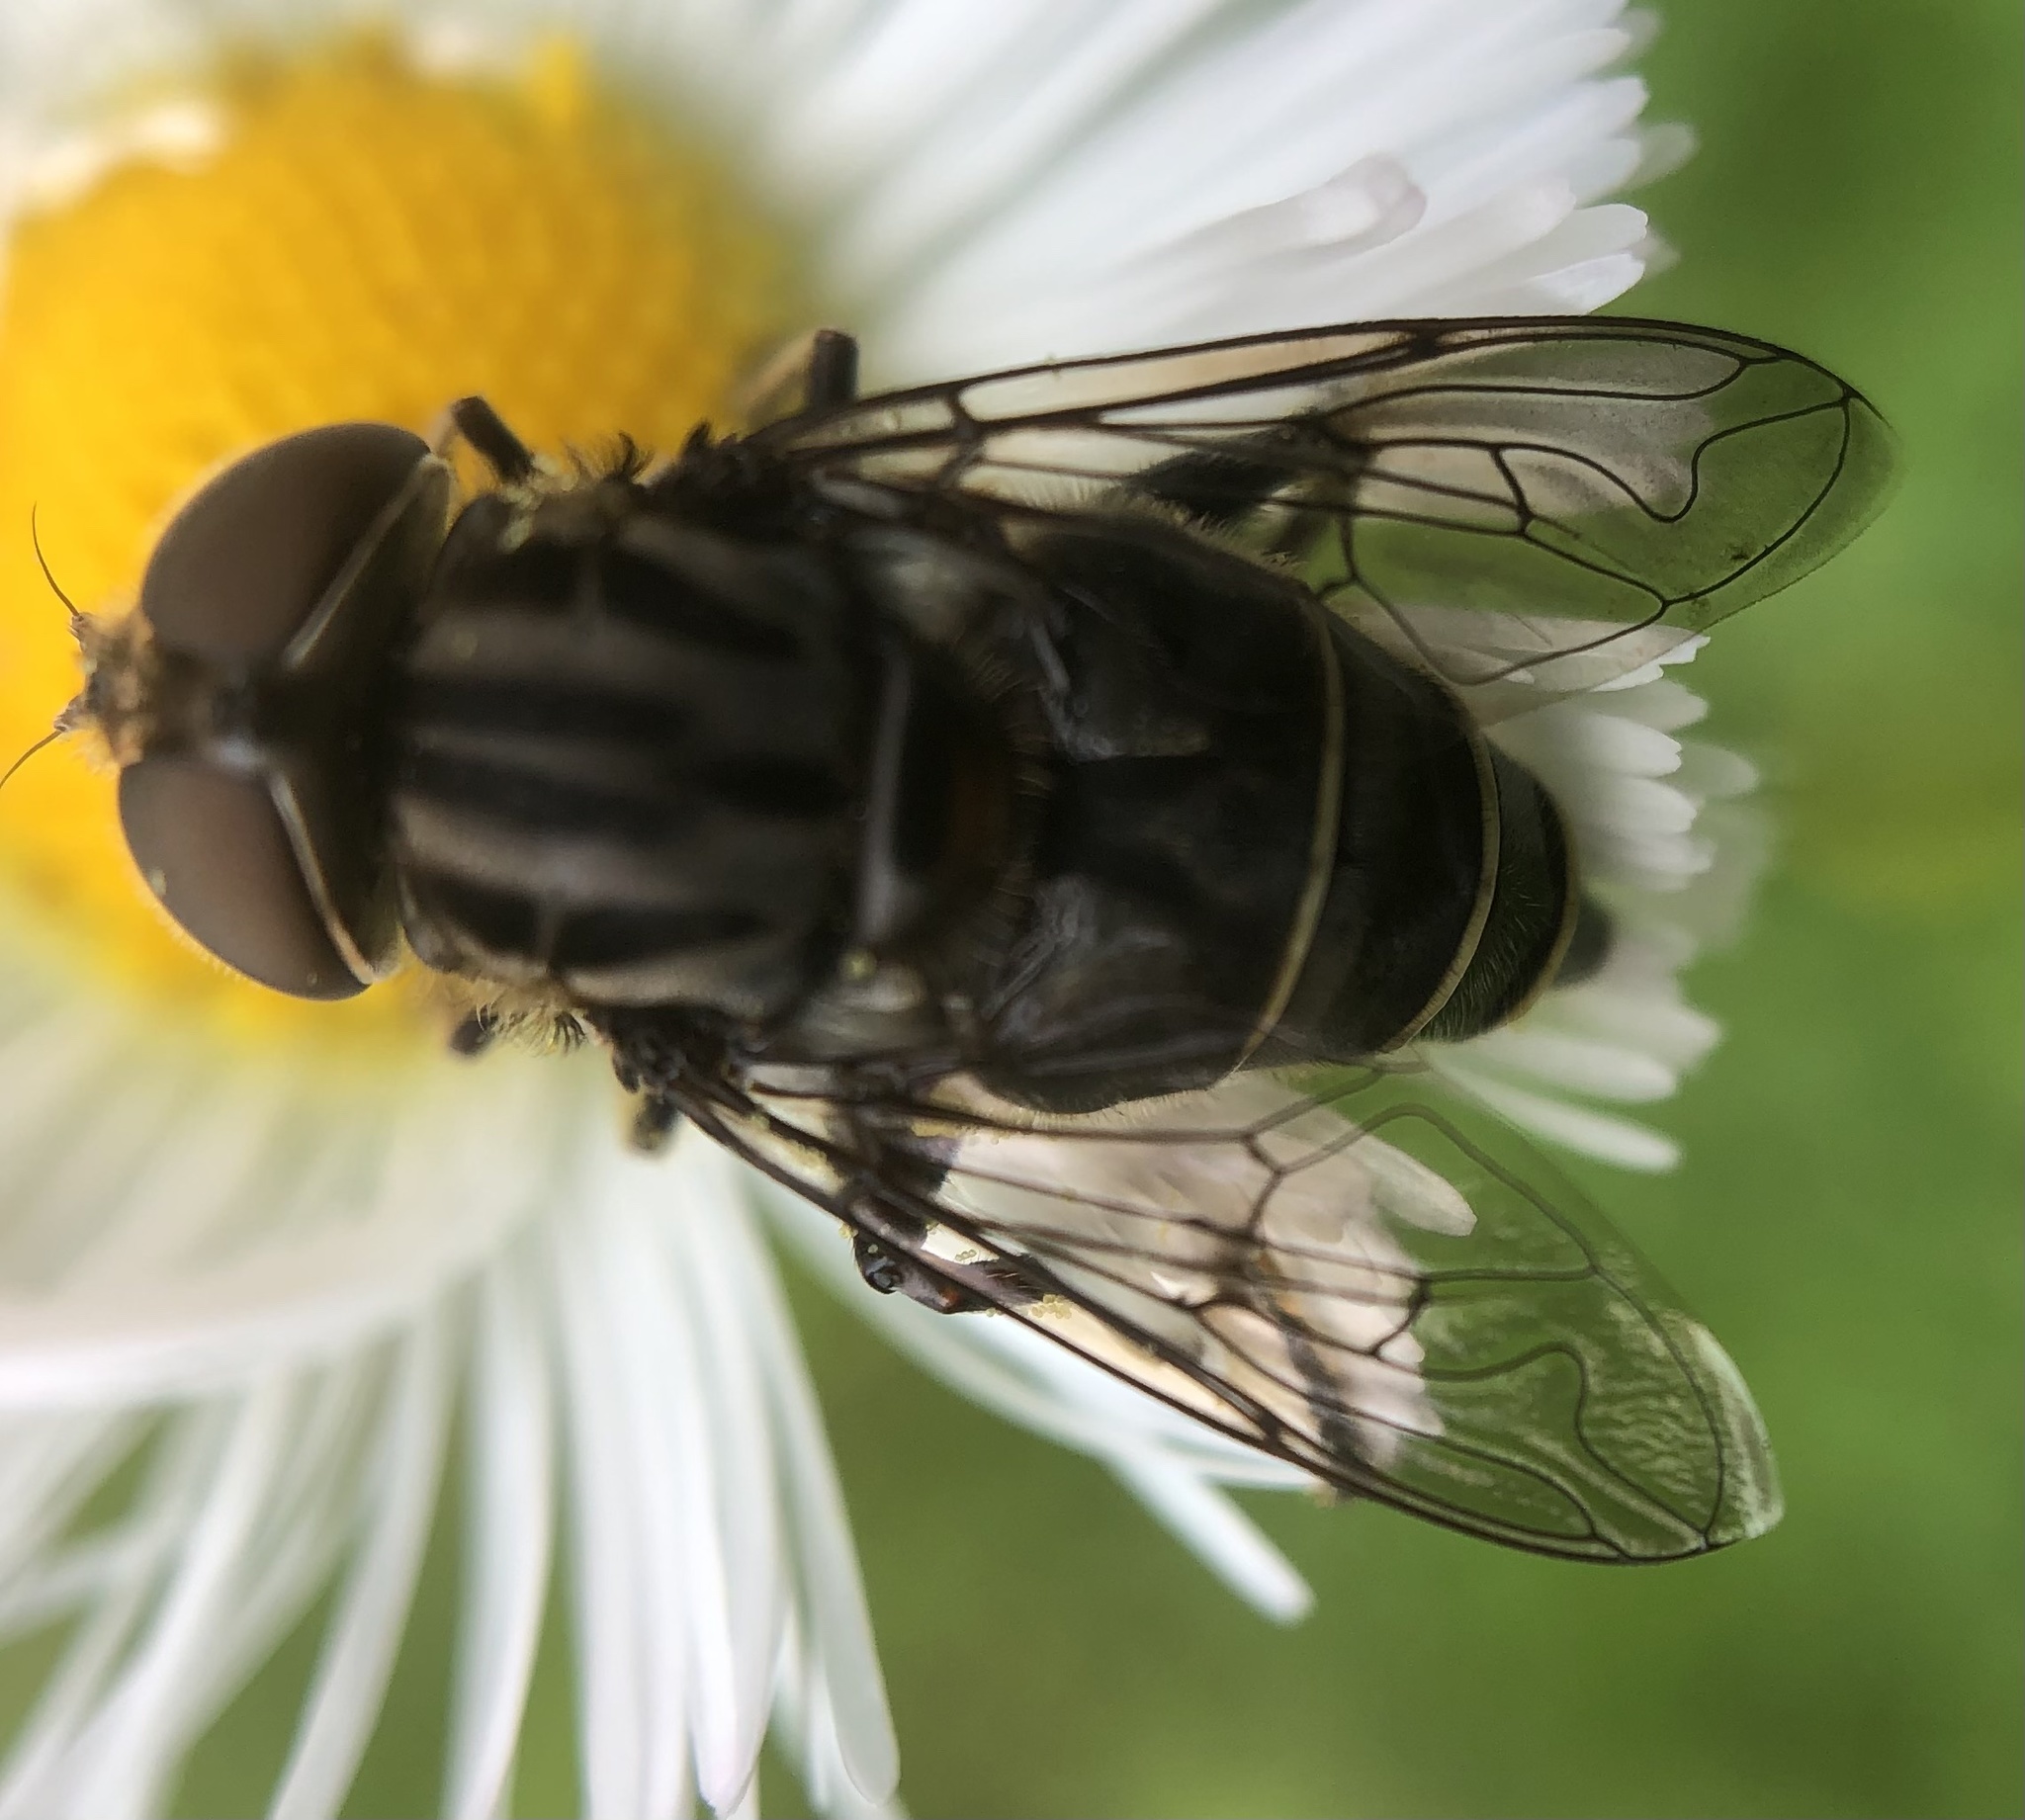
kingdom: Animalia
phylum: Arthropoda
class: Insecta
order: Diptera
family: Syrphidae
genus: Palpada
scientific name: Palpada furcata
